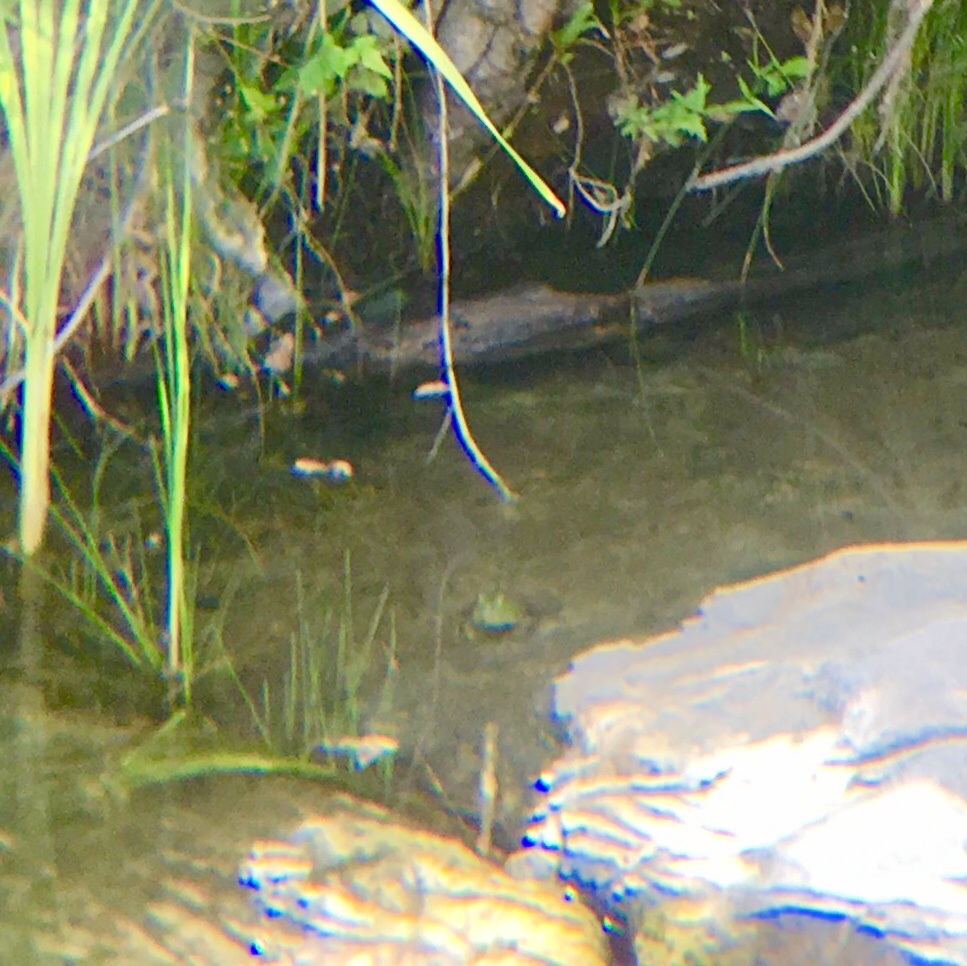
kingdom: Animalia
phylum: Chordata
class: Amphibia
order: Anura
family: Ranidae
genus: Lithobates
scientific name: Lithobates catesbeianus
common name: American bullfrog
